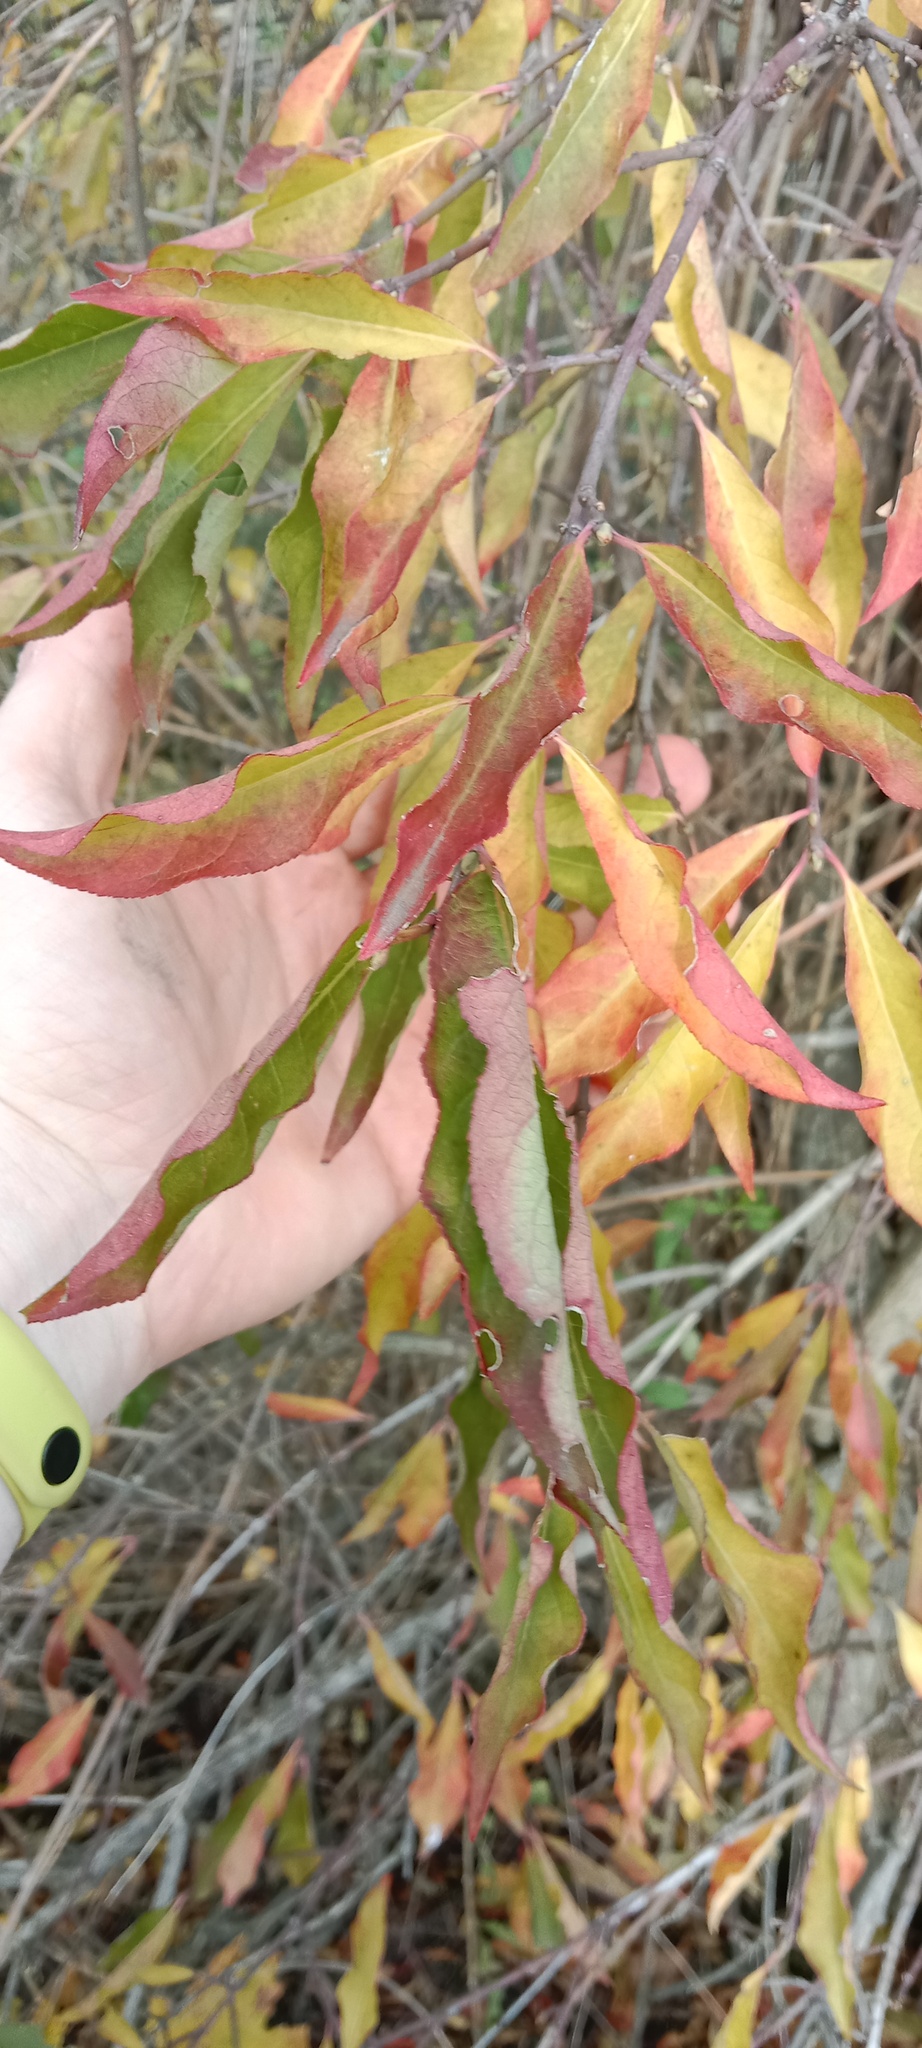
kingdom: Plantae
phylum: Tracheophyta
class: Magnoliopsida
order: Celastrales
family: Celastraceae
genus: Euonymus
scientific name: Euonymus europaeus
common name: Spindle
